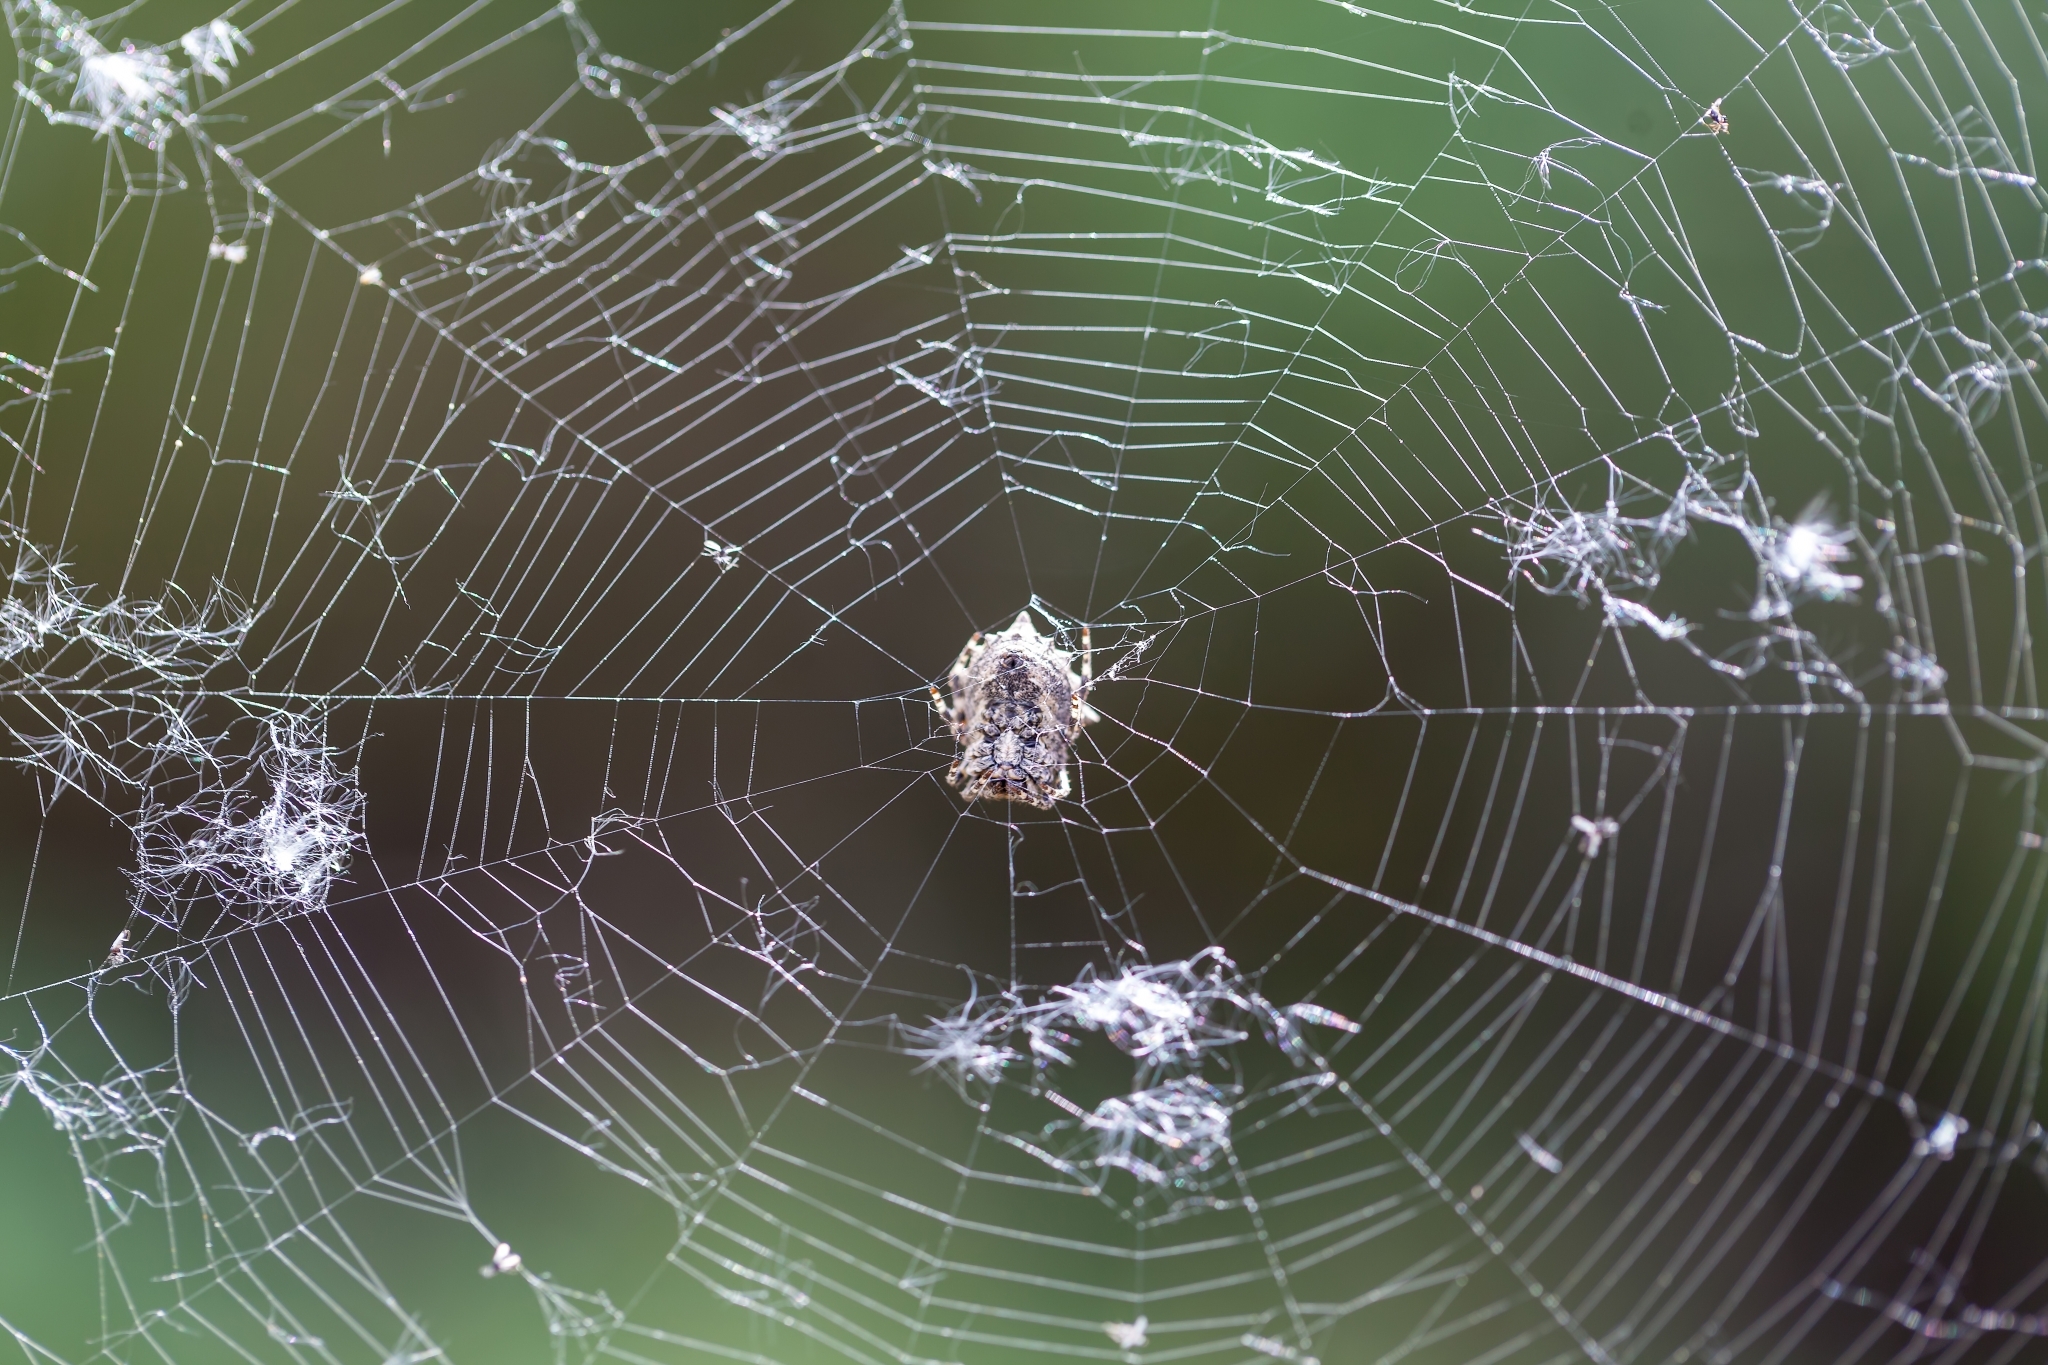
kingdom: Animalia
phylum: Arthropoda
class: Arachnida
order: Araneae
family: Araneidae
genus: Acanthepeira
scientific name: Acanthepeira stellata
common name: Starbellied orbweaver
